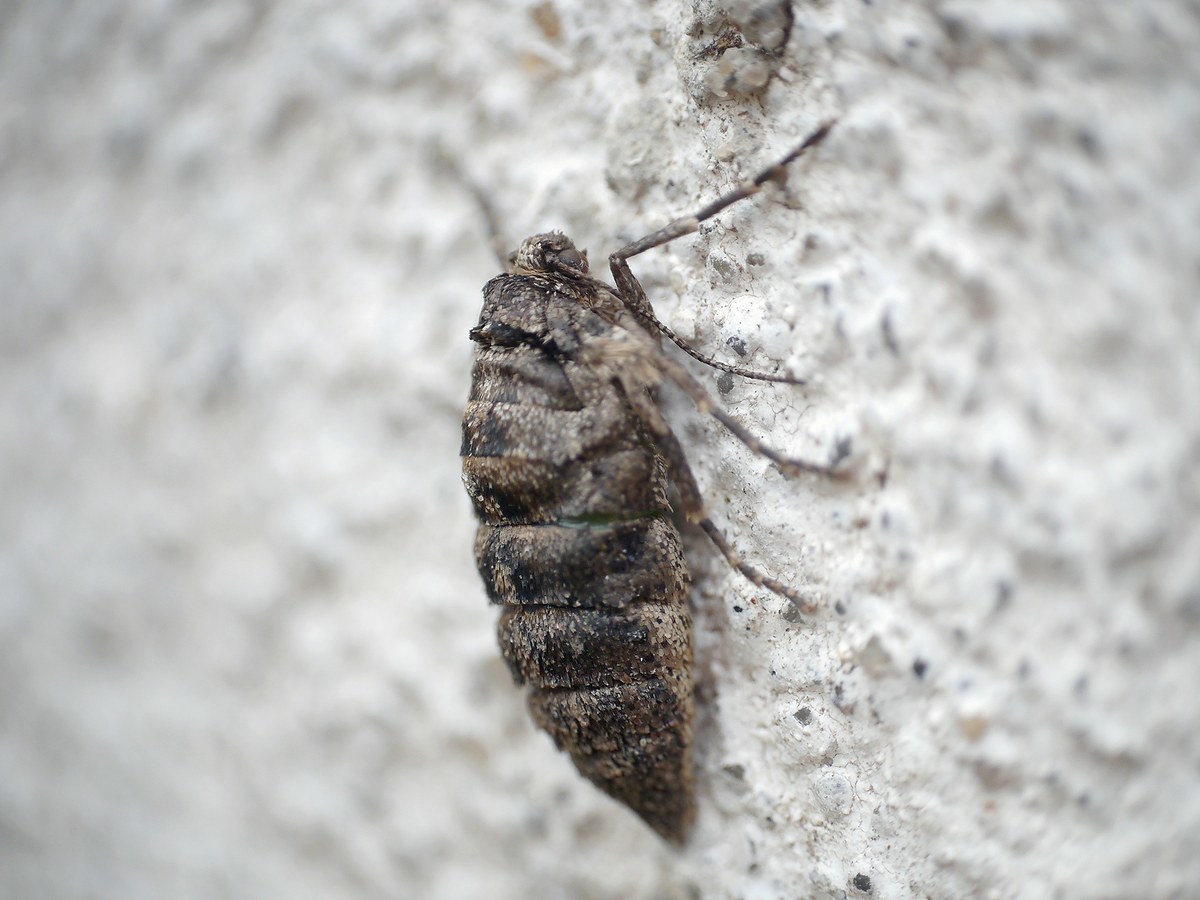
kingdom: Animalia
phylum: Arthropoda
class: Insecta
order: Lepidoptera
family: Geometridae
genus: Agriopis
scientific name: Agriopis leucophaearia
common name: Spring usher
